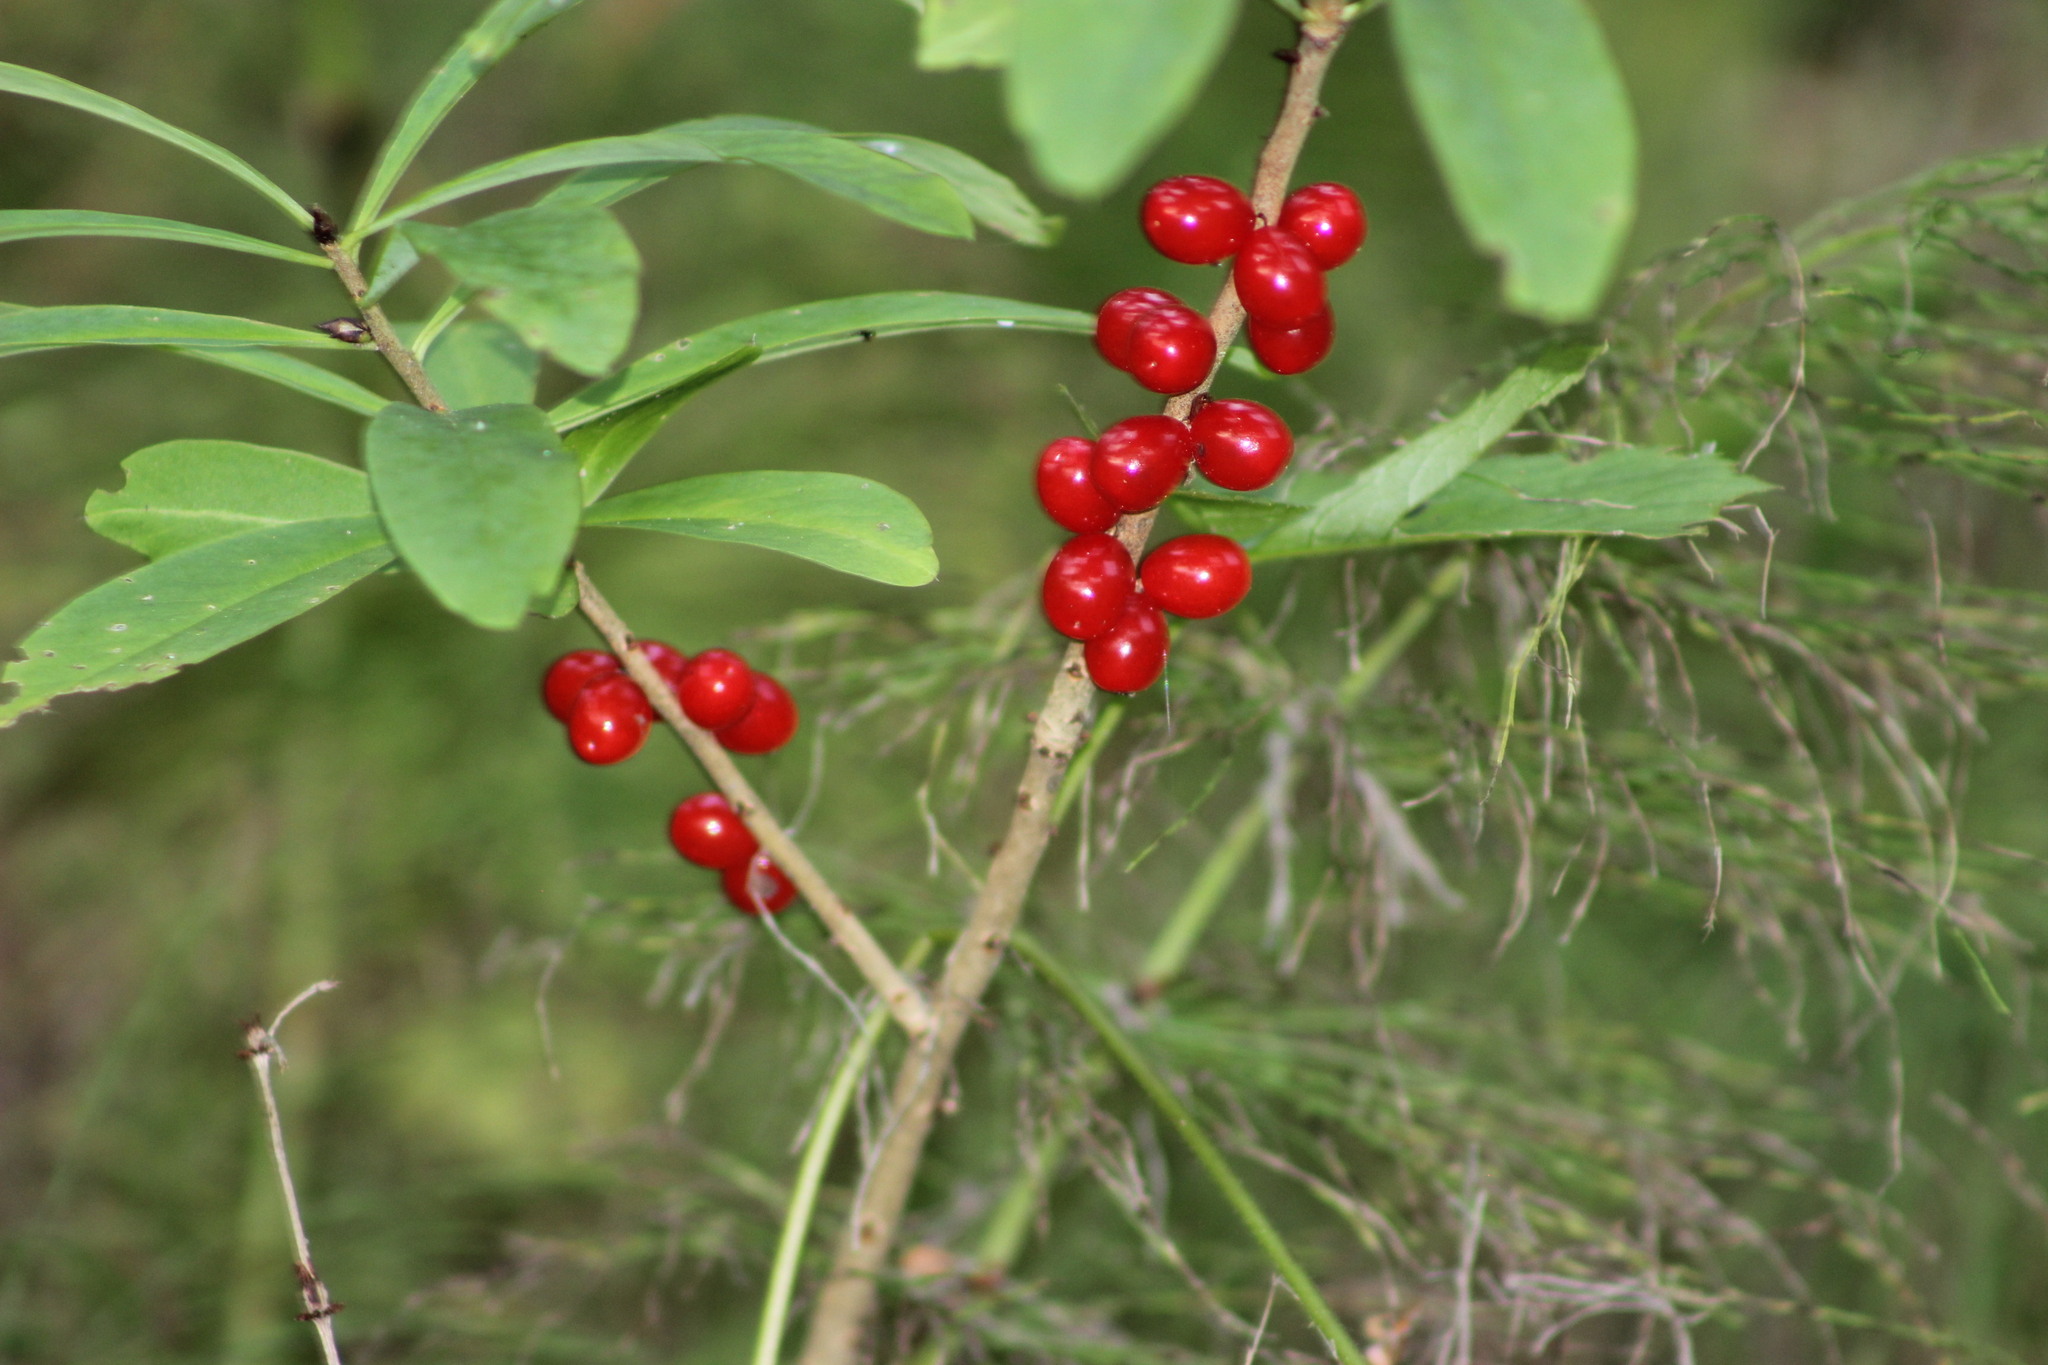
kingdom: Plantae
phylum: Tracheophyta
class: Magnoliopsida
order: Malvales
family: Thymelaeaceae
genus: Daphne
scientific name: Daphne mezereum
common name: Mezereon
